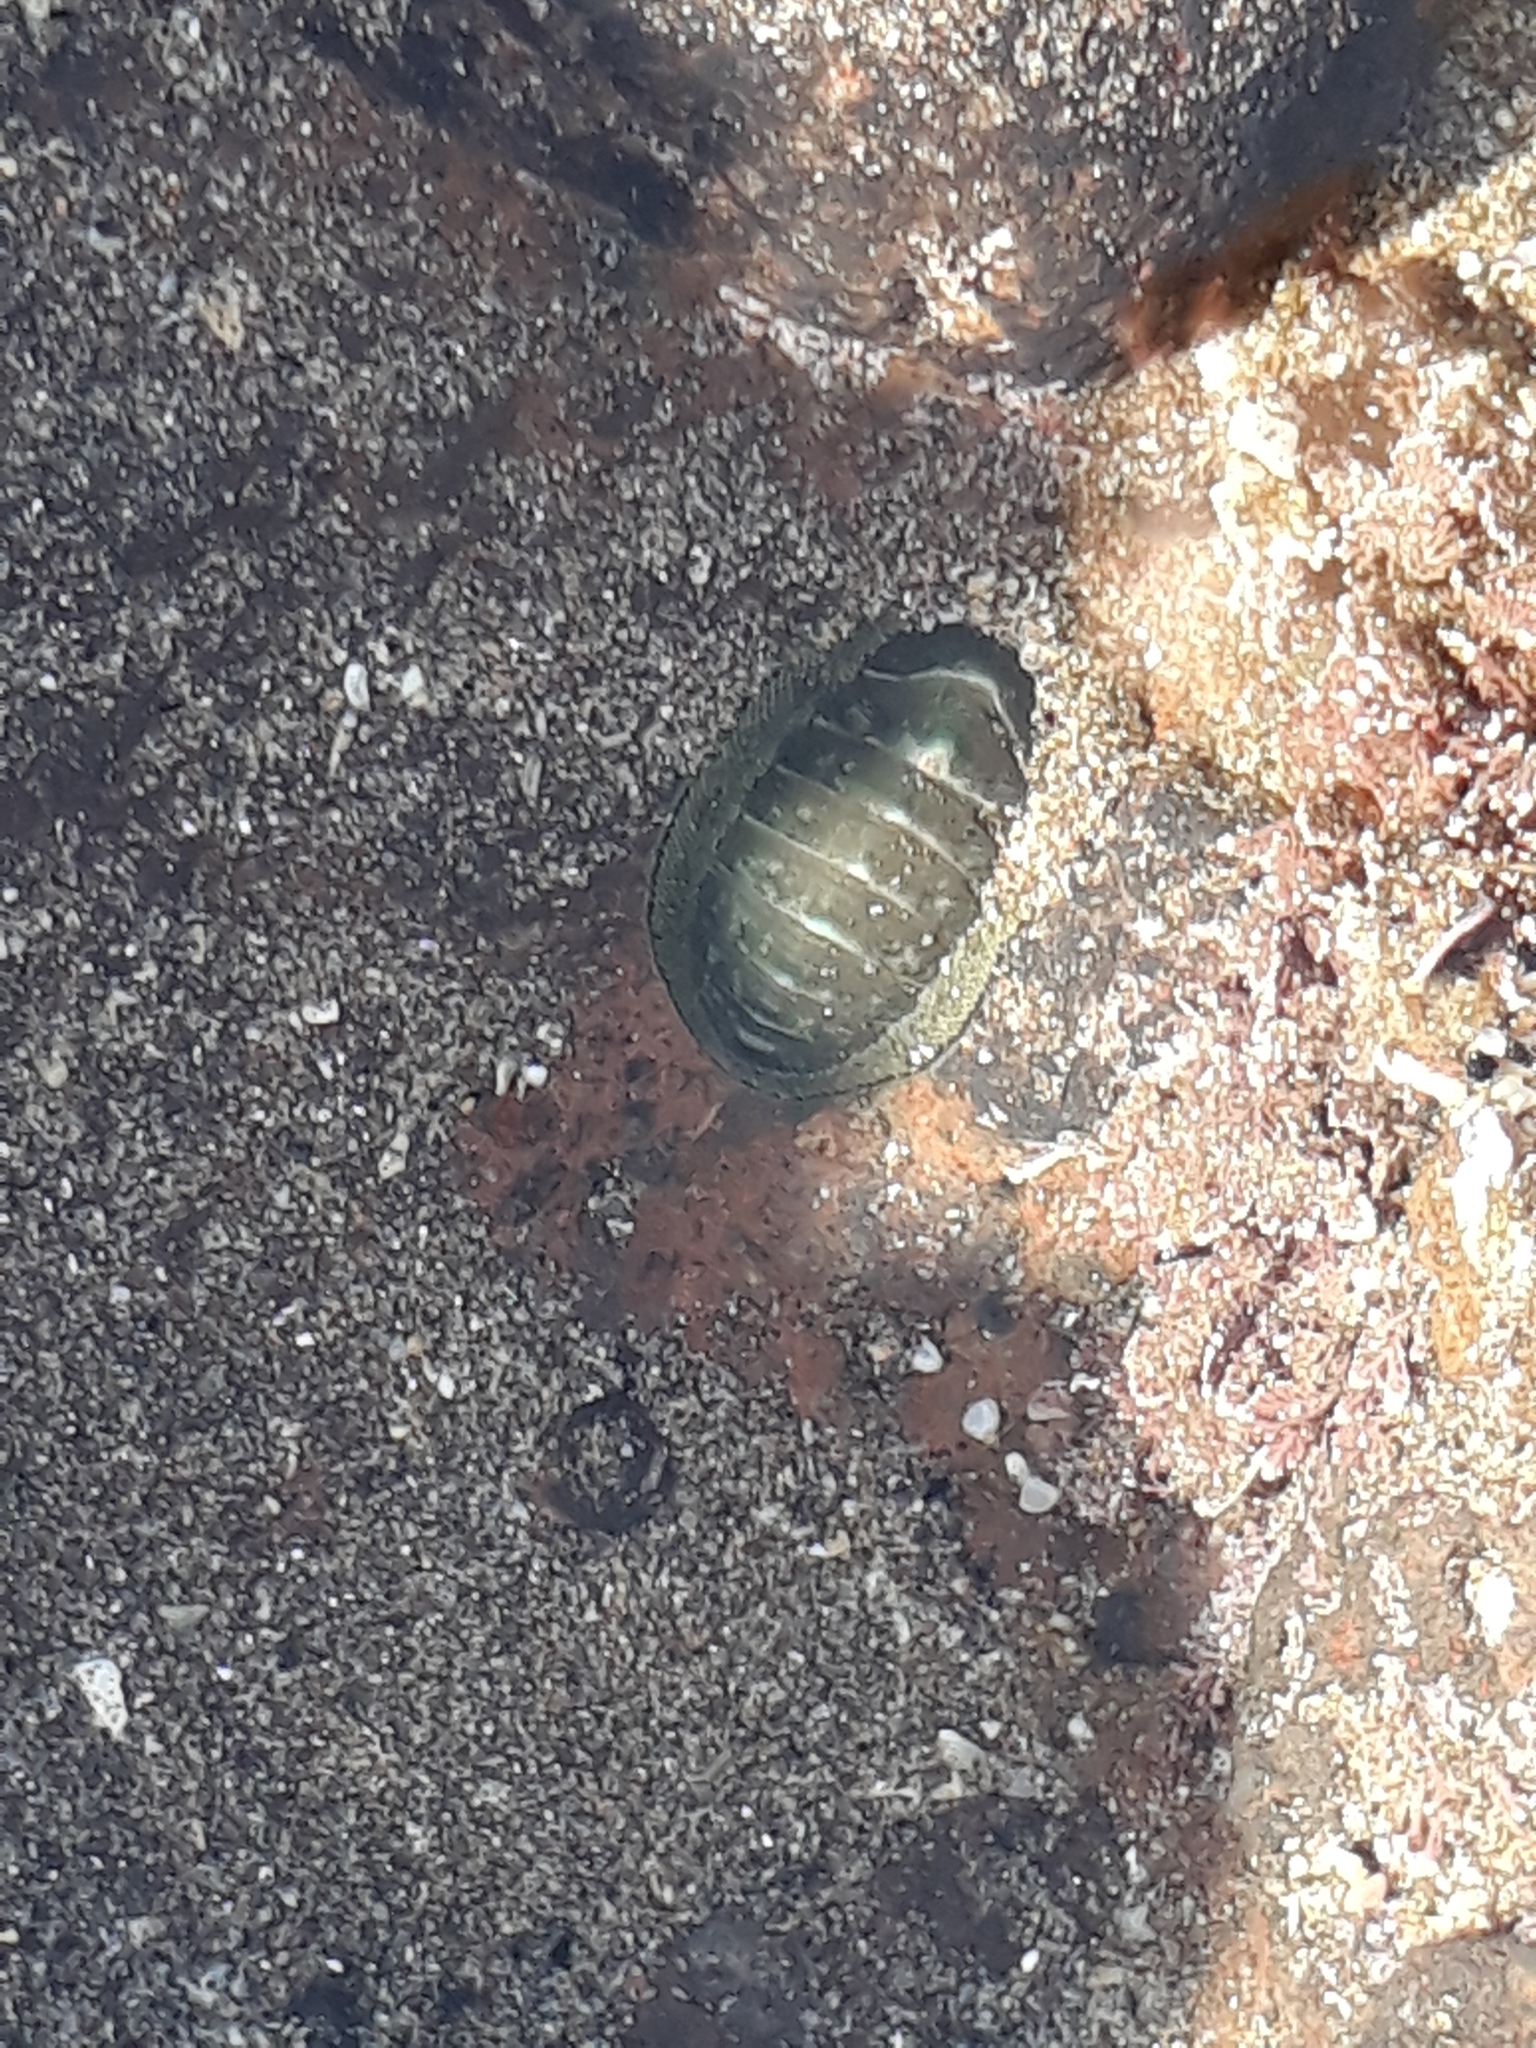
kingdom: Animalia
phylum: Mollusca
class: Polyplacophora
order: Chitonida
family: Chitonidae
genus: Chiton
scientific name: Chiton glaucus
